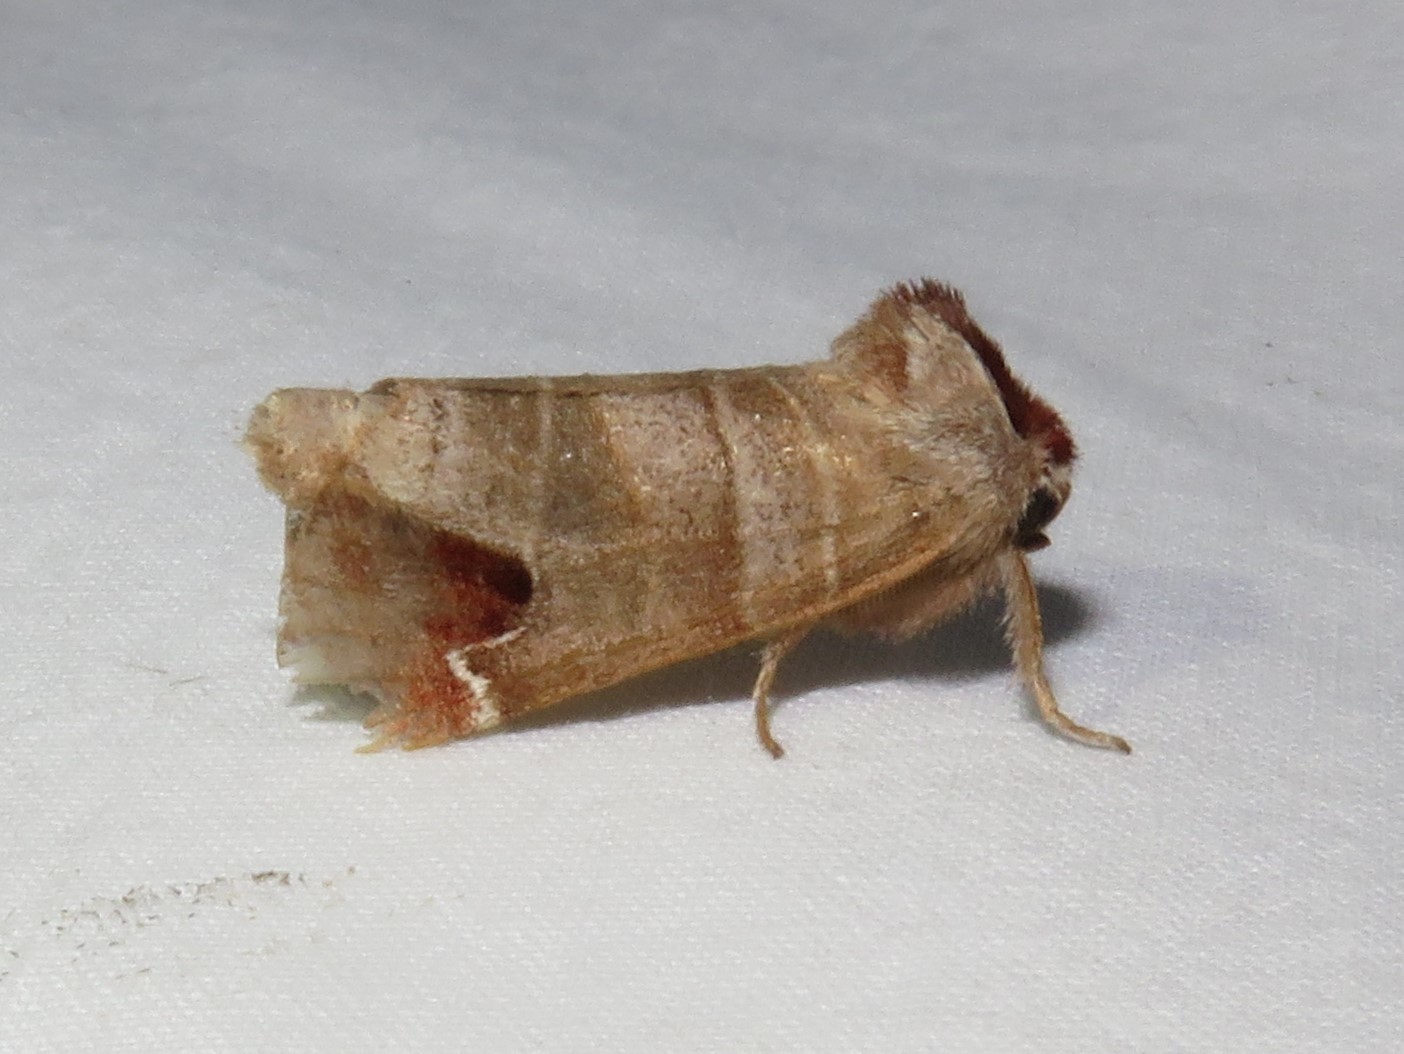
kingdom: Animalia
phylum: Arthropoda
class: Insecta
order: Lepidoptera
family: Notodontidae
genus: Clostera
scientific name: Clostera albosigma
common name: Sigmoid prominent
